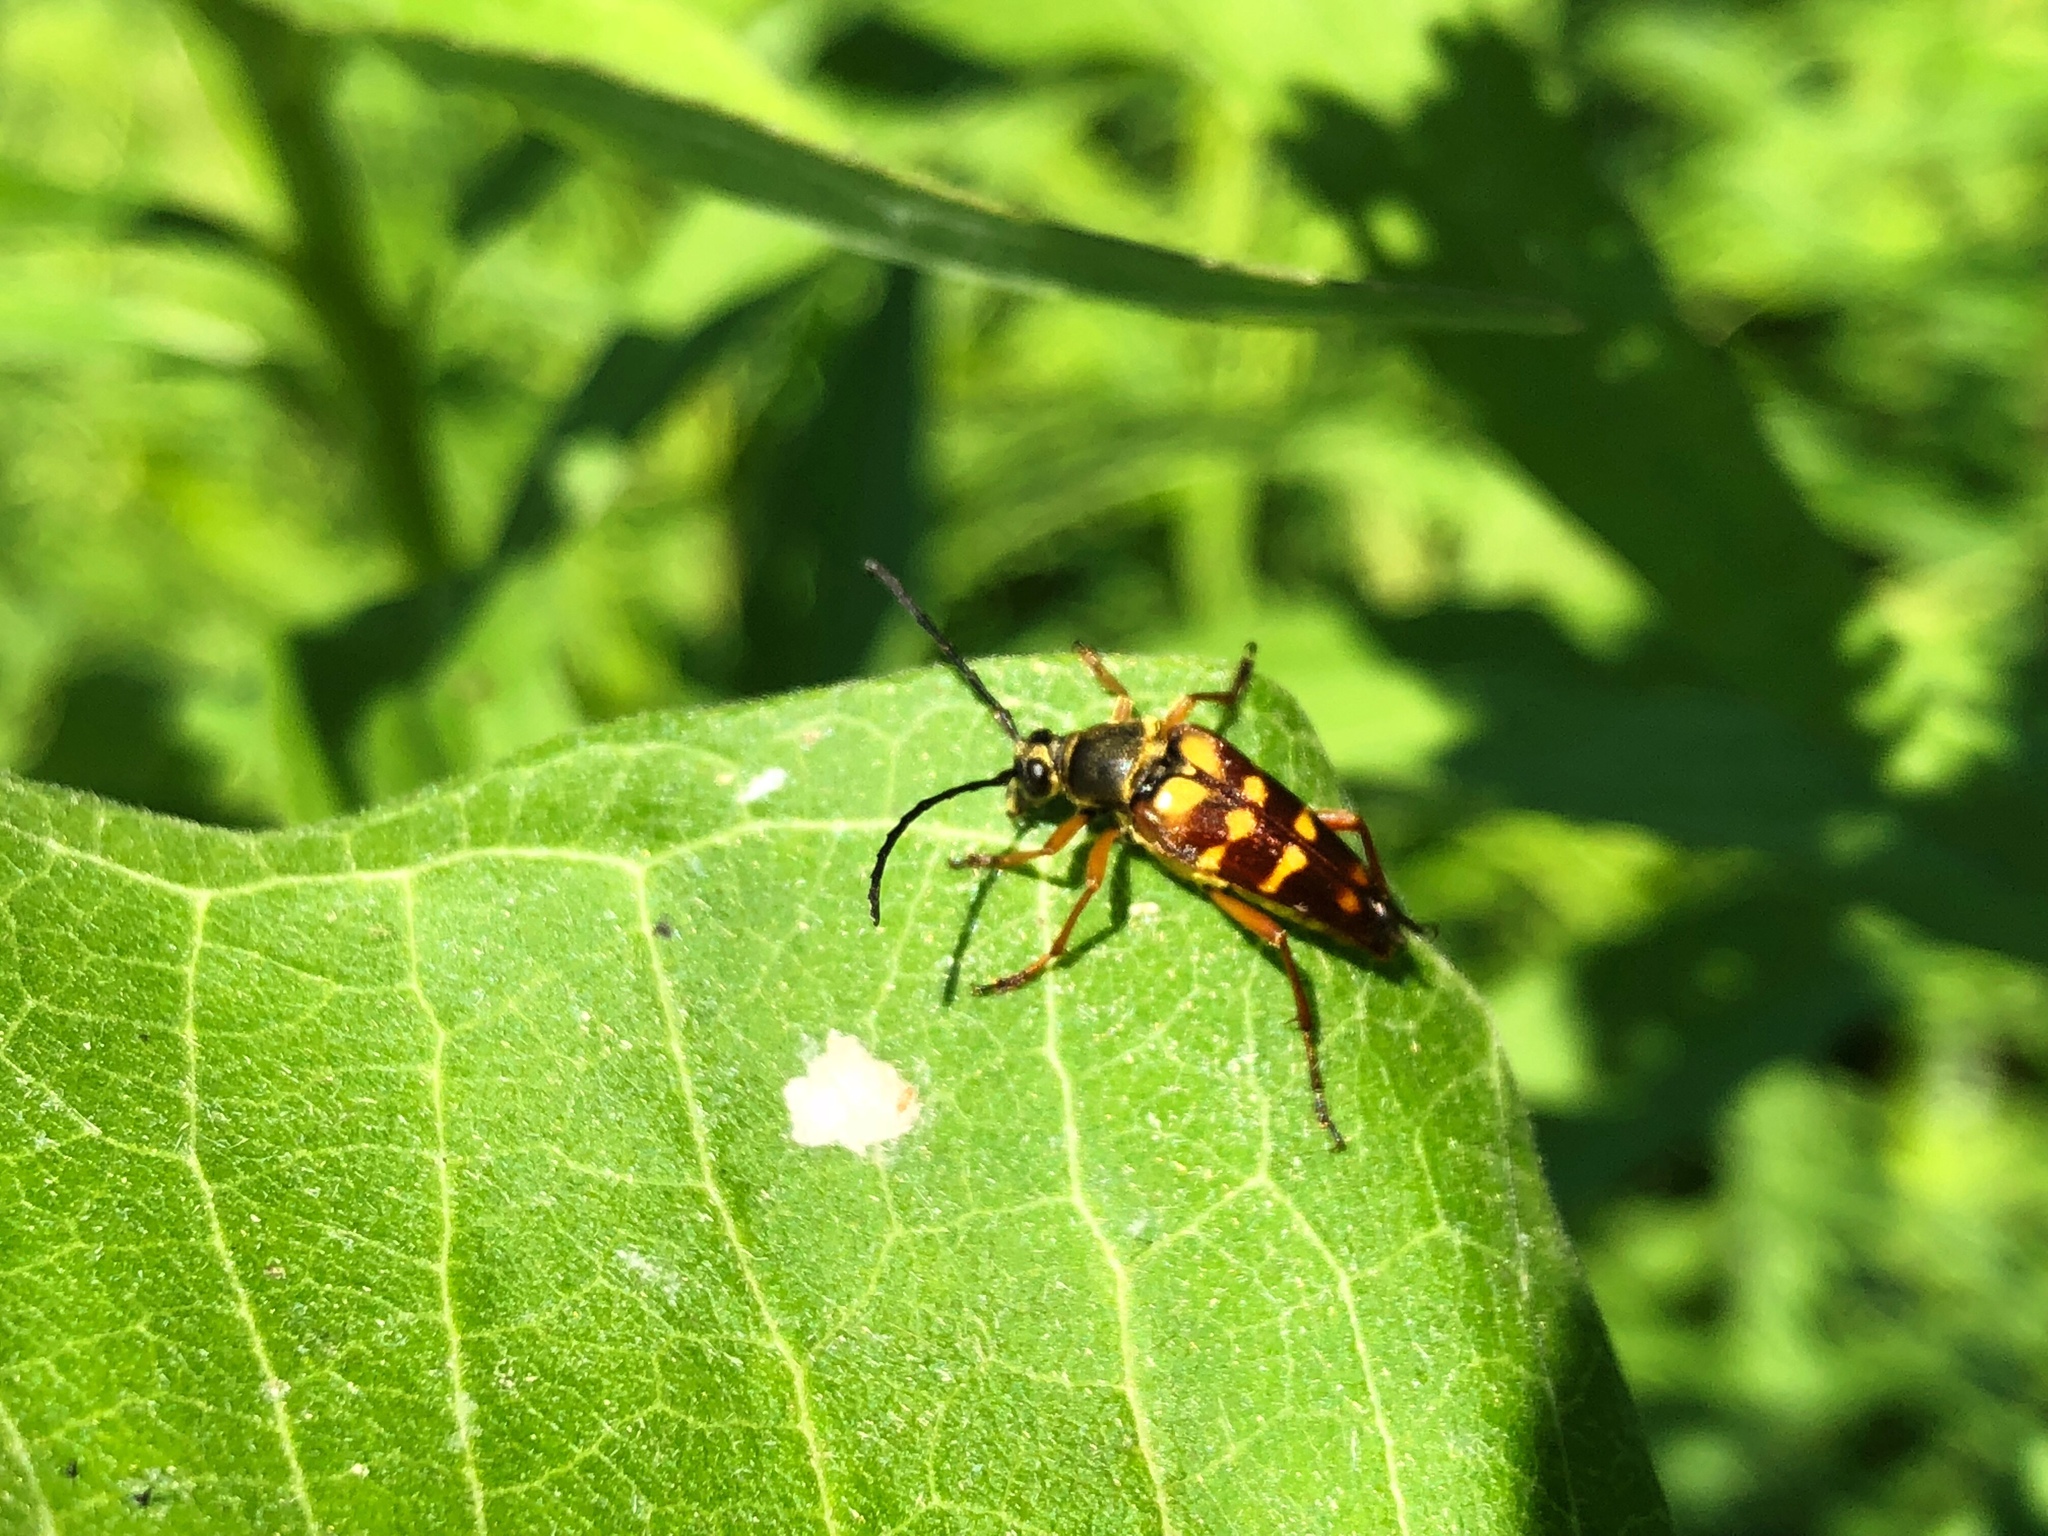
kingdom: Animalia
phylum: Arthropoda
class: Insecta
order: Coleoptera
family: Cerambycidae
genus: Typocerus
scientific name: Typocerus velutinus
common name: Banded longhorn beetle
